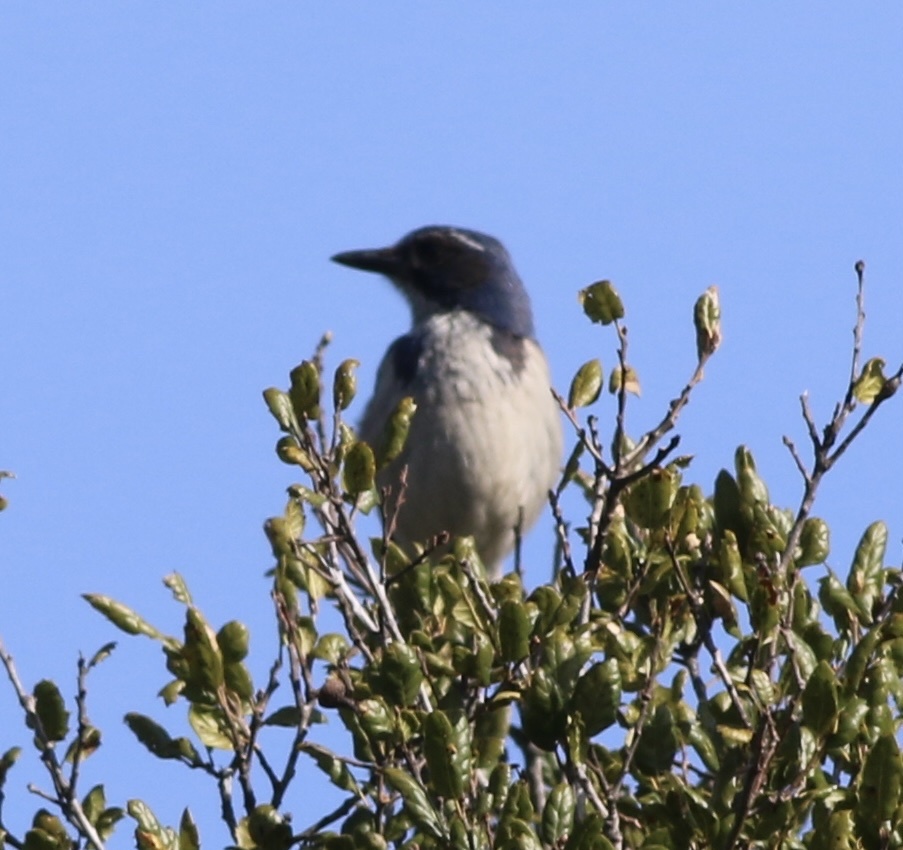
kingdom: Animalia
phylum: Chordata
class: Aves
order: Passeriformes
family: Corvidae
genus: Aphelocoma
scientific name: Aphelocoma californica
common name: California scrub-jay
